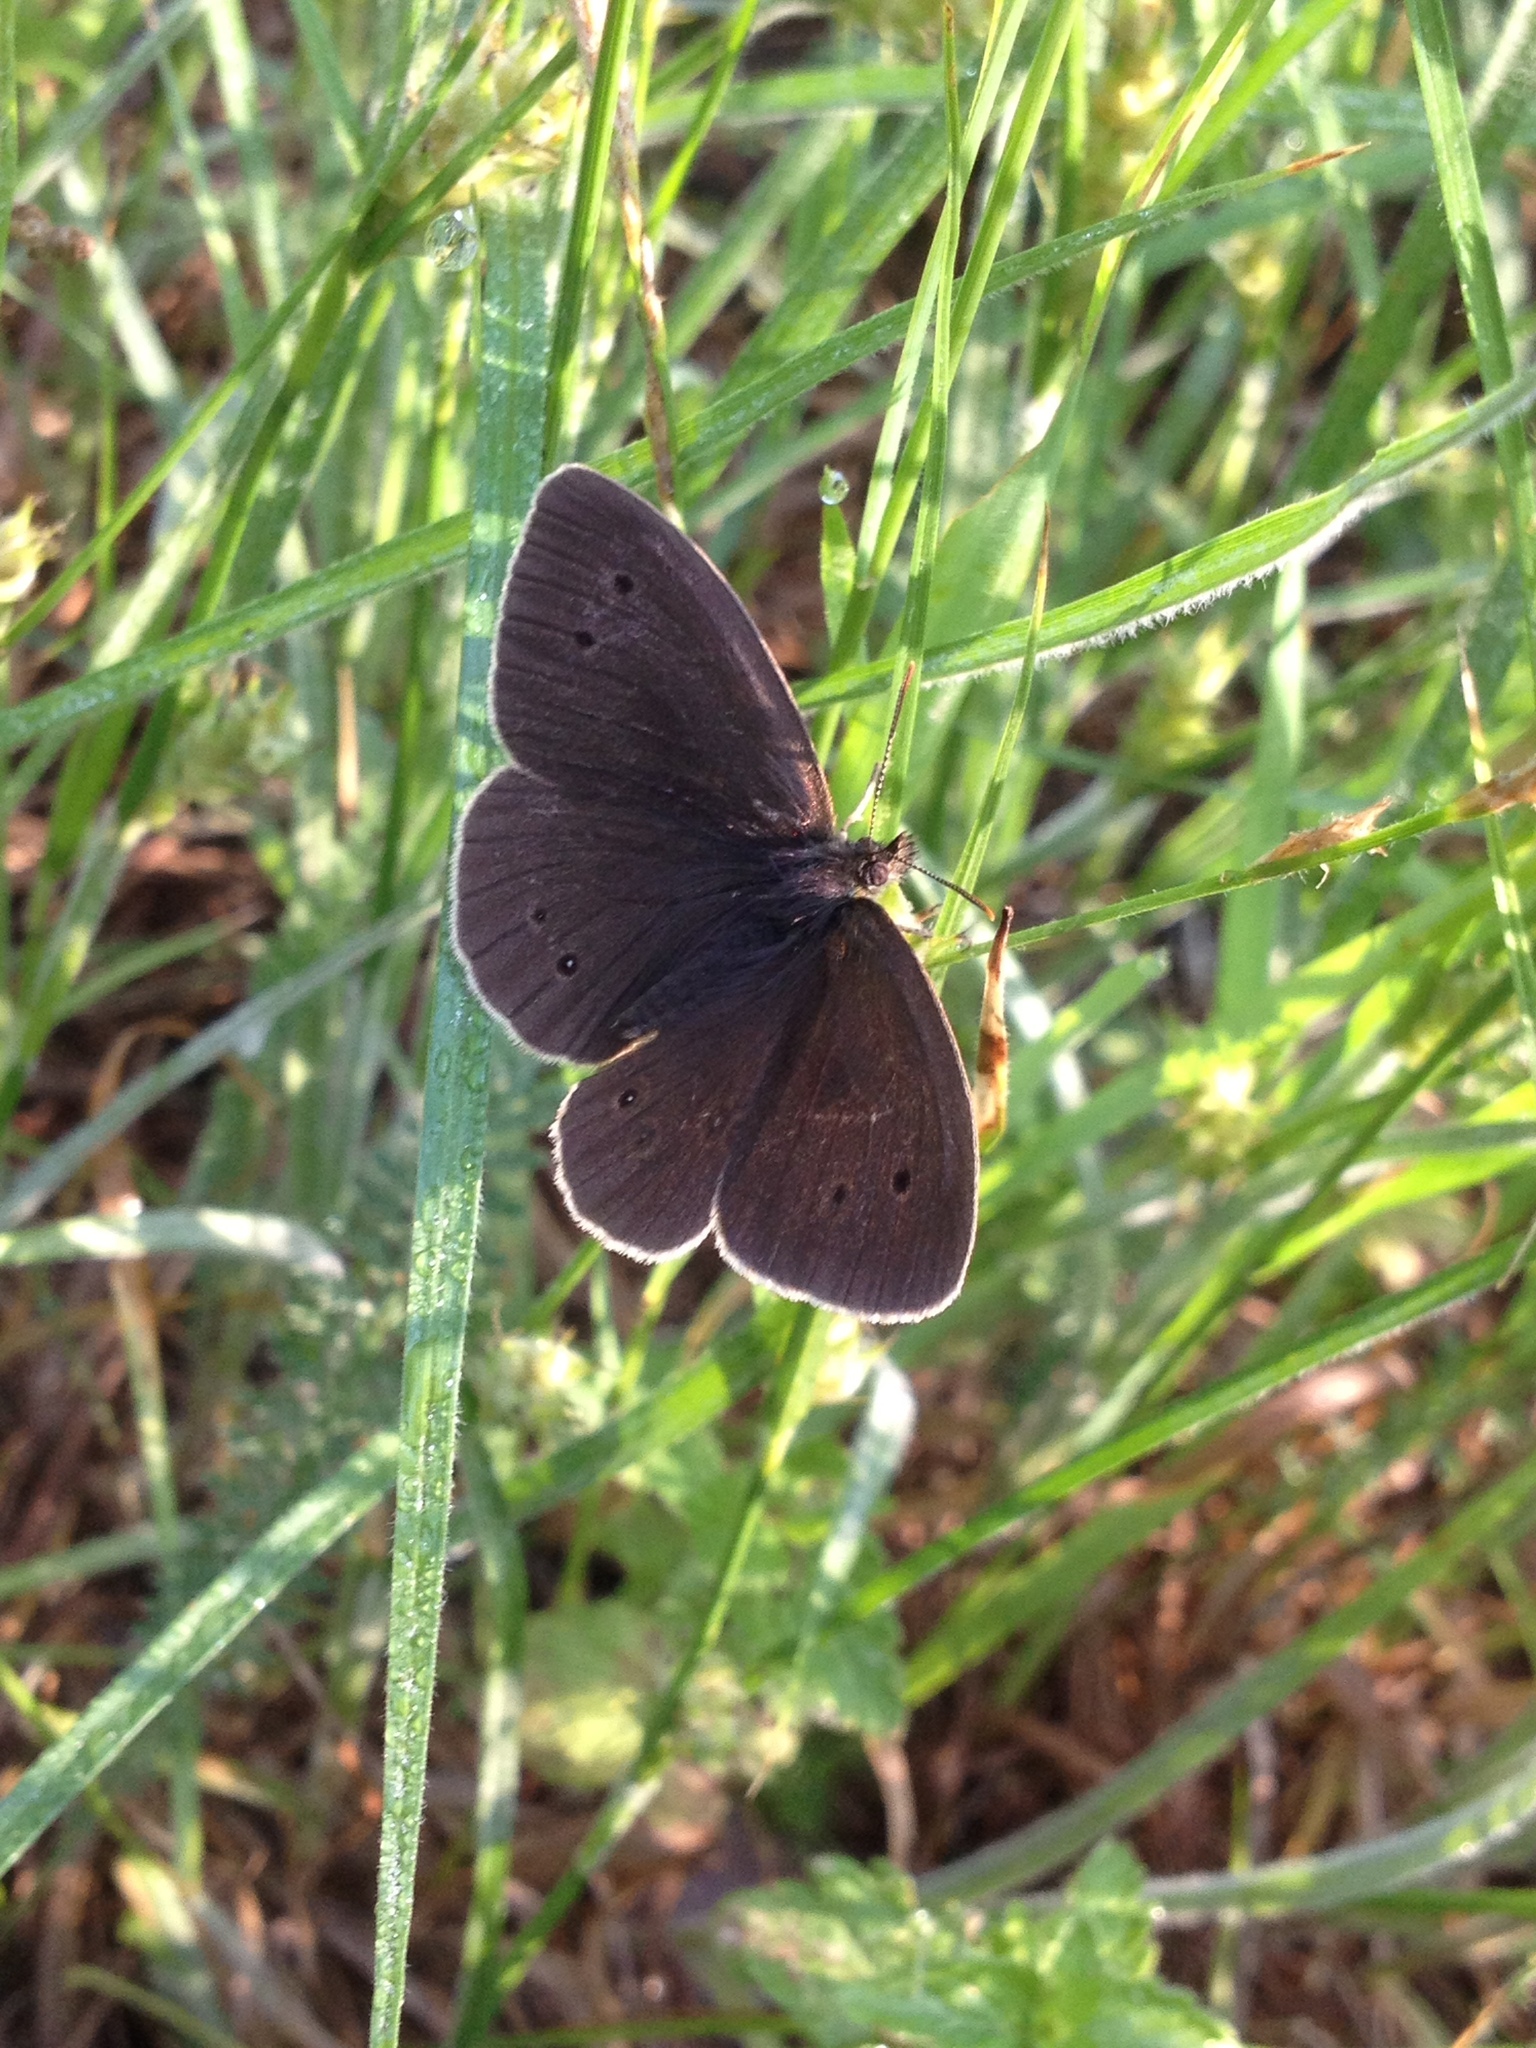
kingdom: Animalia
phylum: Arthropoda
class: Insecta
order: Lepidoptera
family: Nymphalidae
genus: Aphantopus
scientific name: Aphantopus hyperantus
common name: Ringlet
